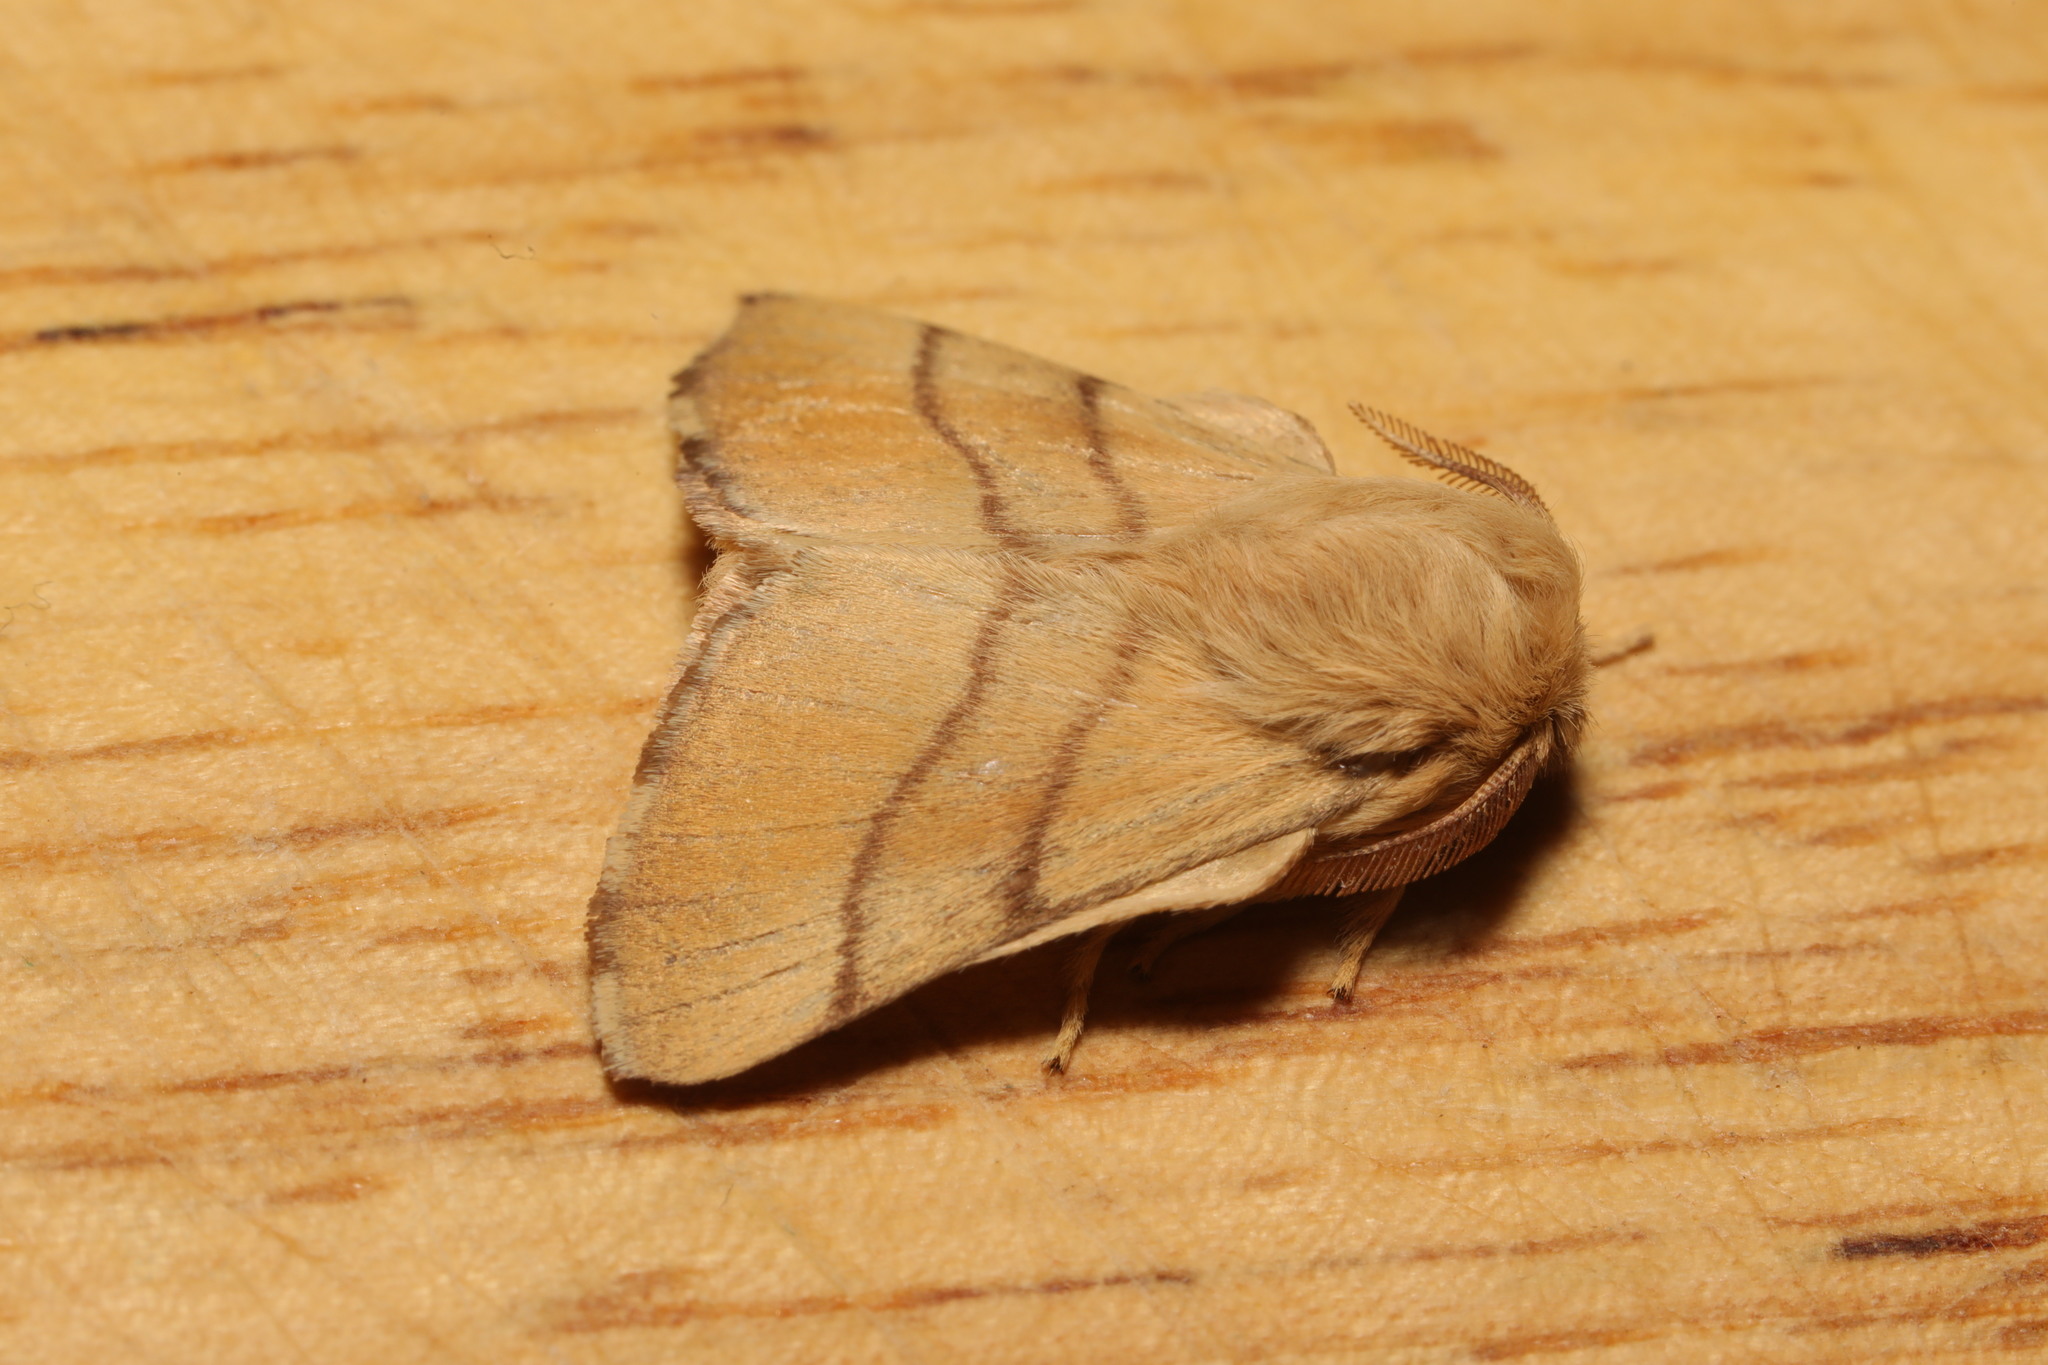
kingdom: Animalia
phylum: Arthropoda
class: Insecta
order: Lepidoptera
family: Lasiocampidae
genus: Malacosoma
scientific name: Malacosoma neustria
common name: The lackey
